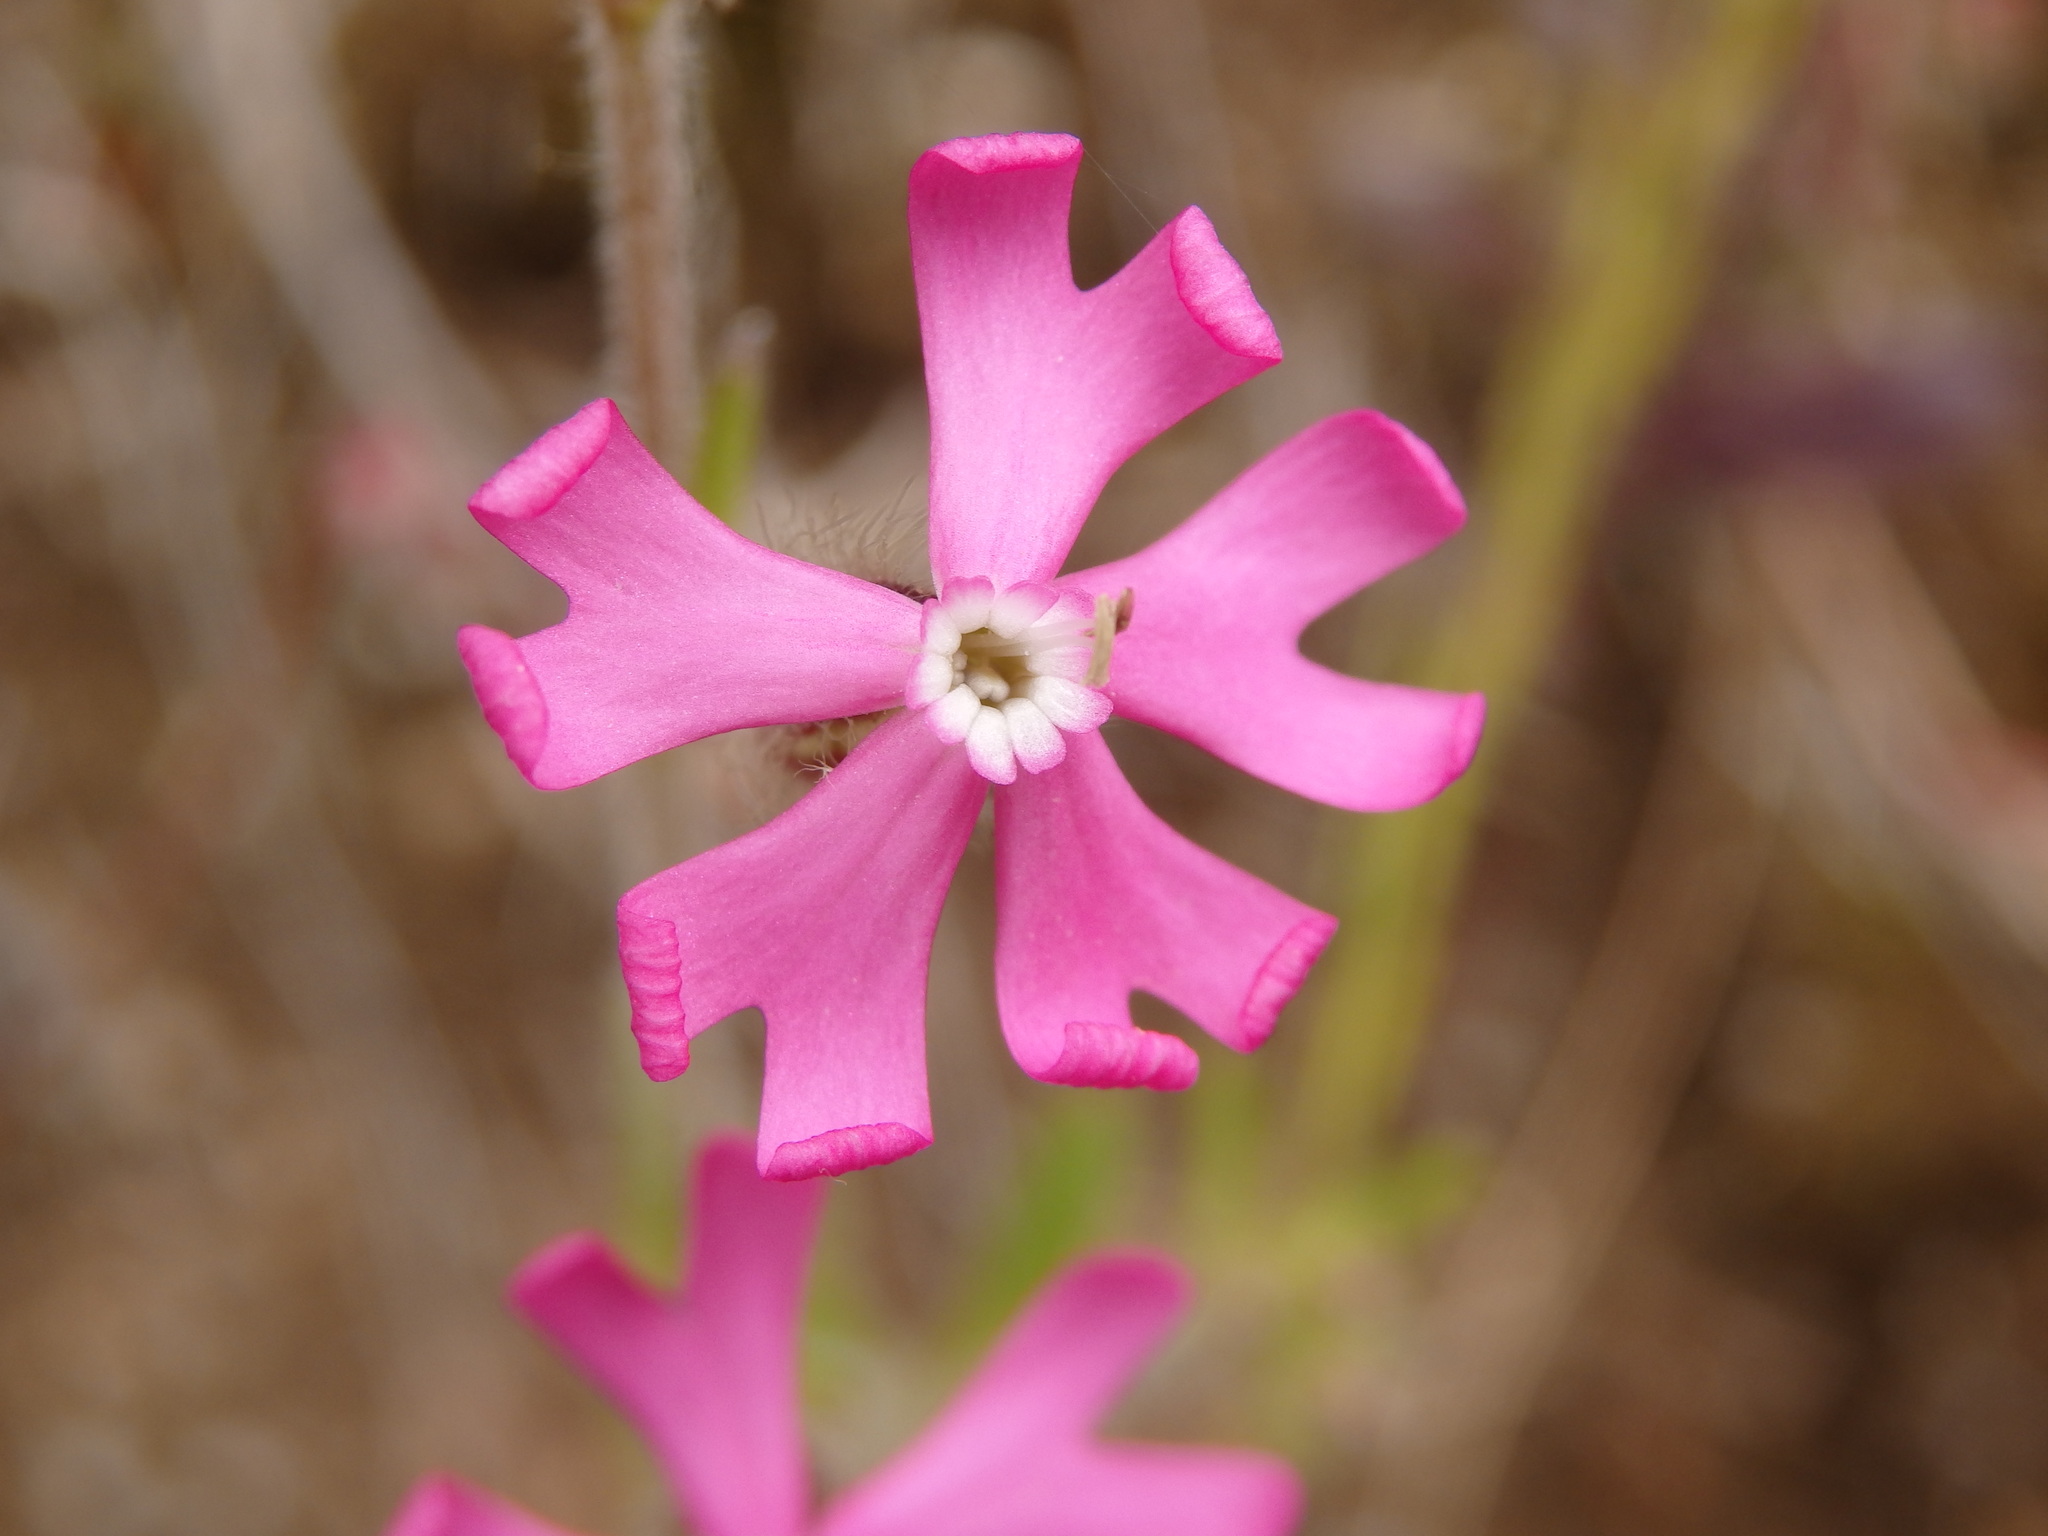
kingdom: Plantae
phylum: Tracheophyta
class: Magnoliopsida
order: Caryophyllales
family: Caryophyllaceae
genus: Silene
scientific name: Silene scabriflora
